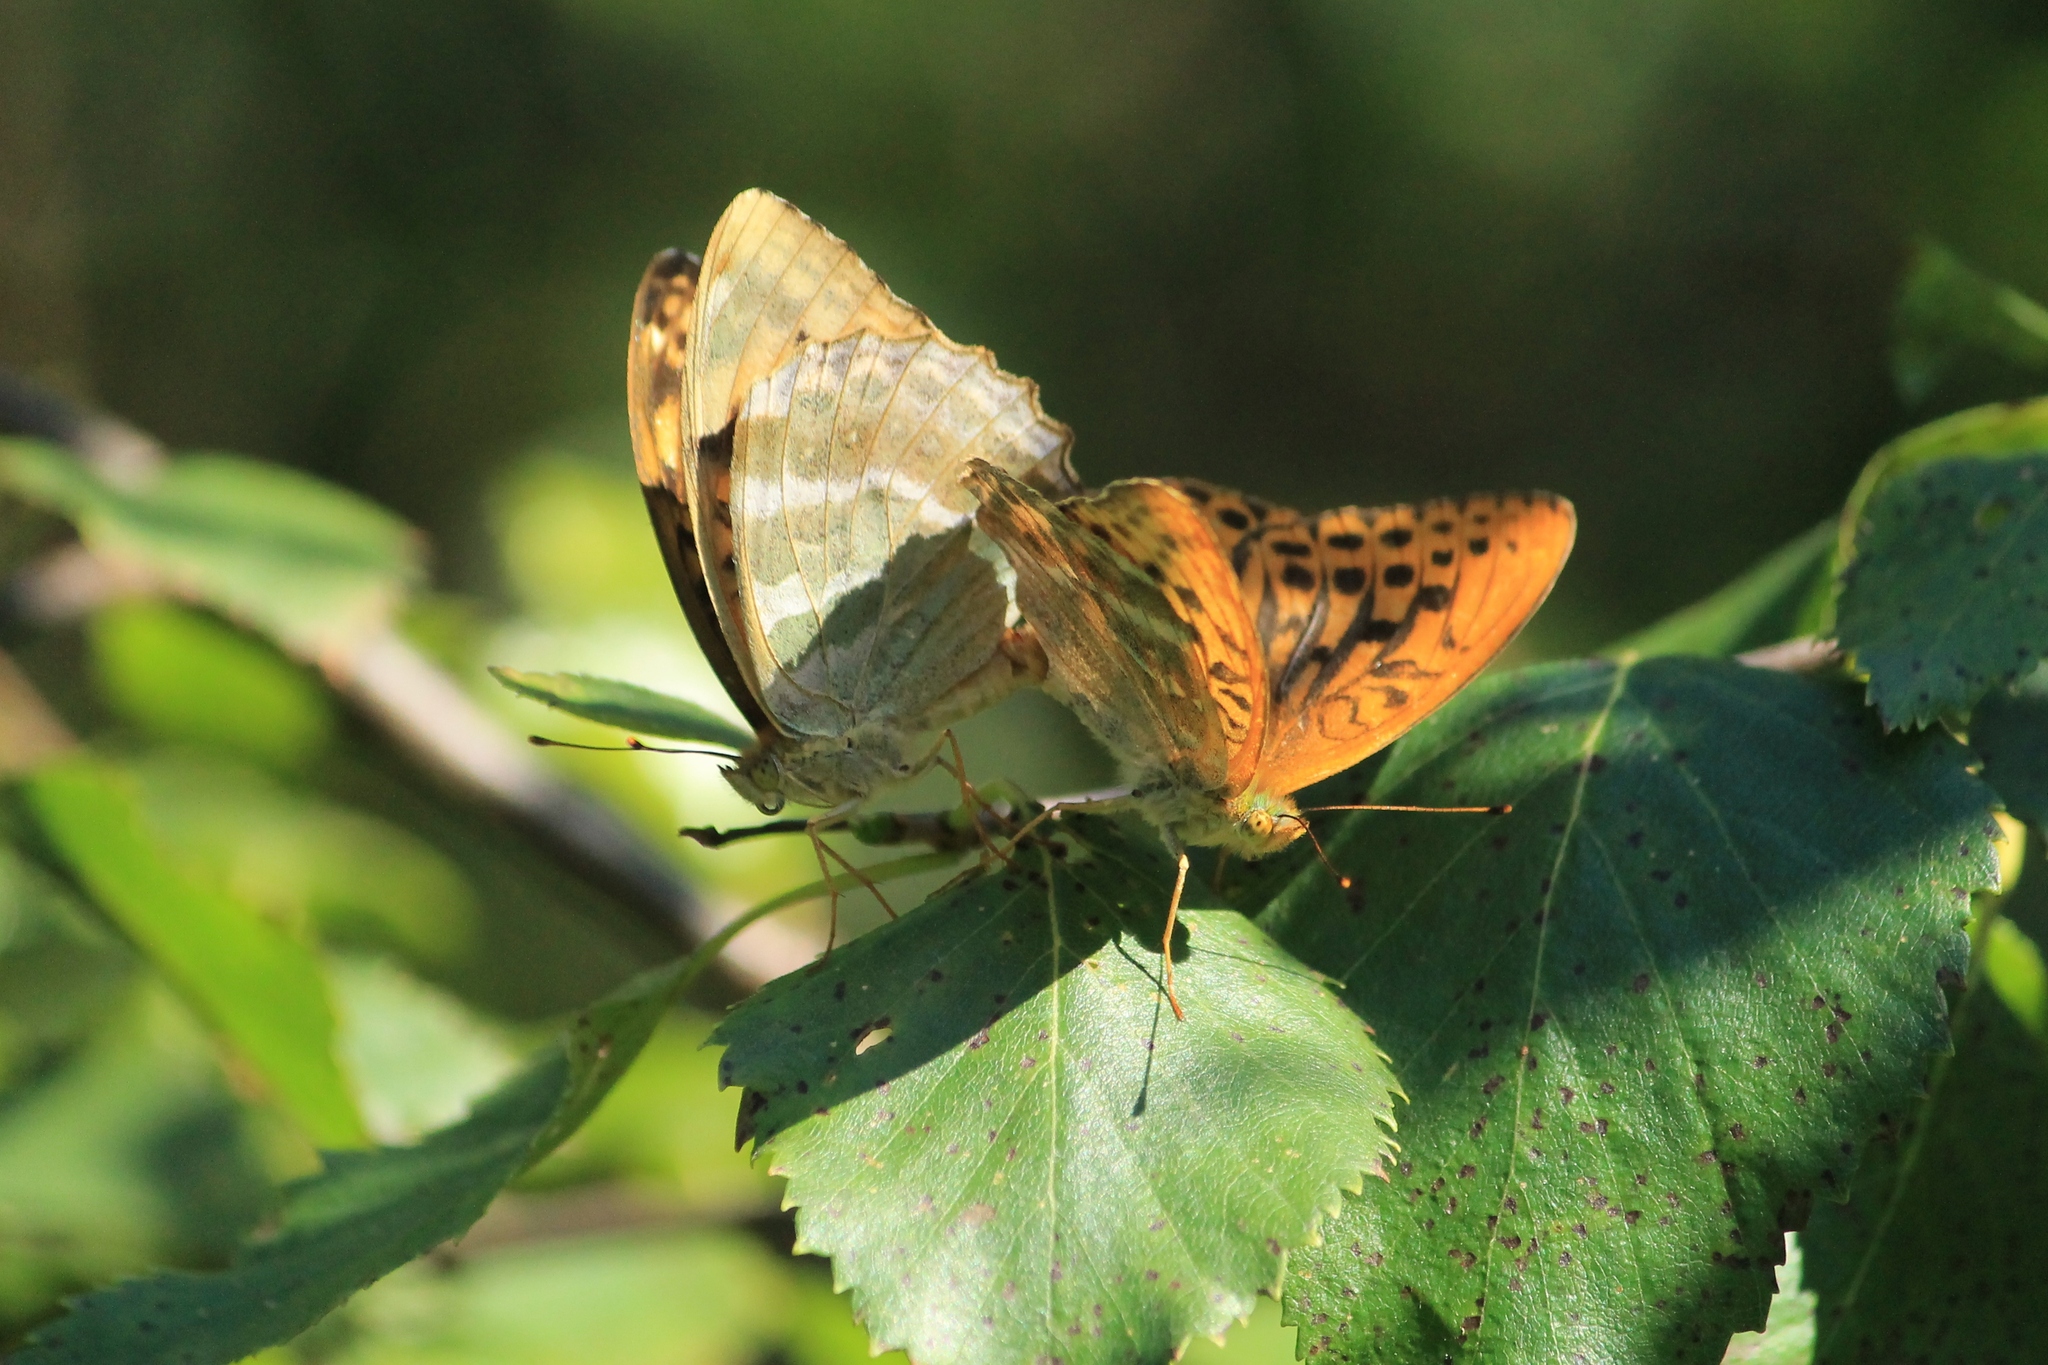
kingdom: Animalia
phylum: Arthropoda
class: Insecta
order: Lepidoptera
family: Nymphalidae
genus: Argynnis
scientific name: Argynnis paphia
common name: Silver-washed fritillary
